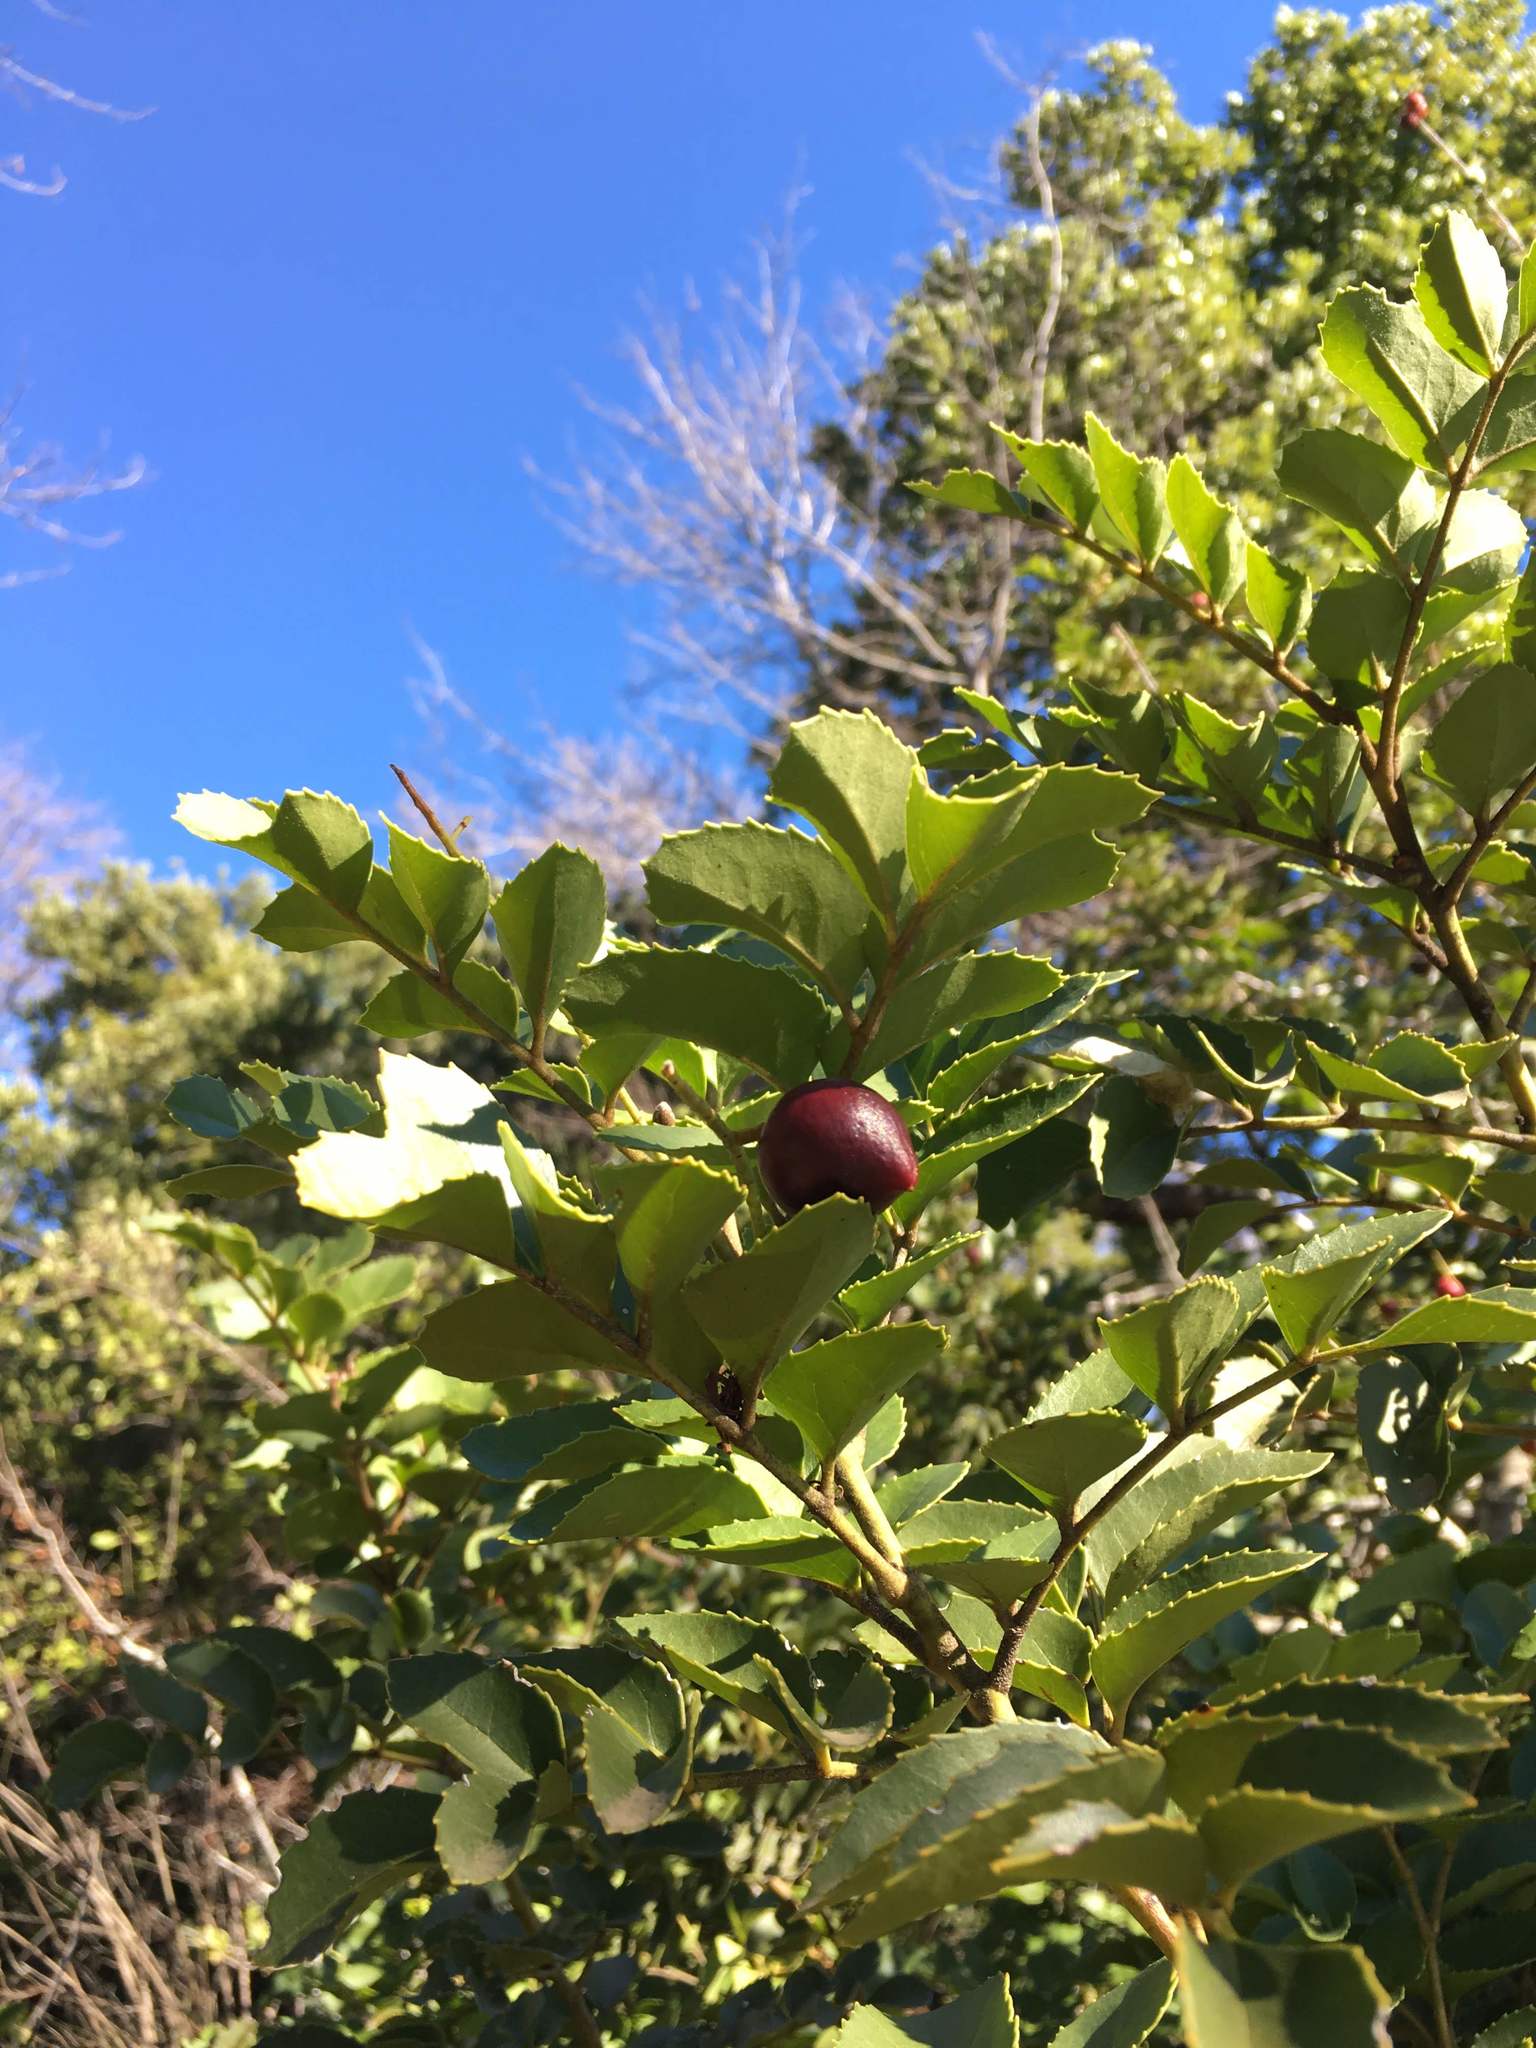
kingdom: Plantae
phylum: Tracheophyta
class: Magnoliopsida
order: Proteales
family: Proteaceae
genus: Gevuina
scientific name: Gevuina avellana
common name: Chilean hazel
